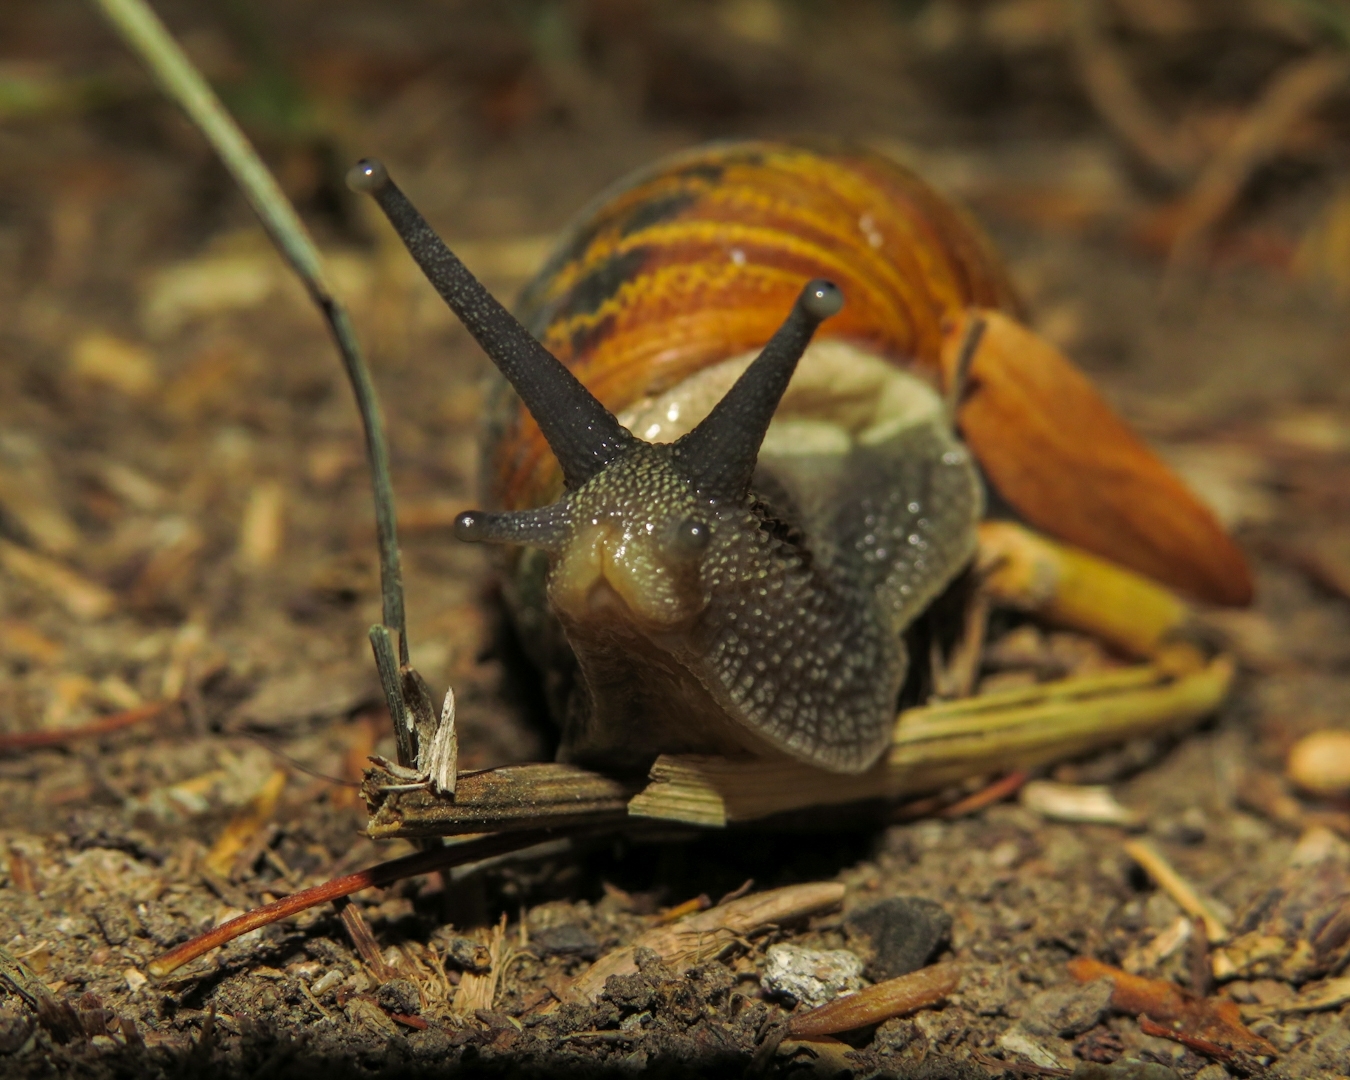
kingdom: Animalia
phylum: Mollusca
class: Gastropoda
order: Stylommatophora
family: Helicidae
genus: Cornu
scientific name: Cornu aspersum
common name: Brown garden snail
